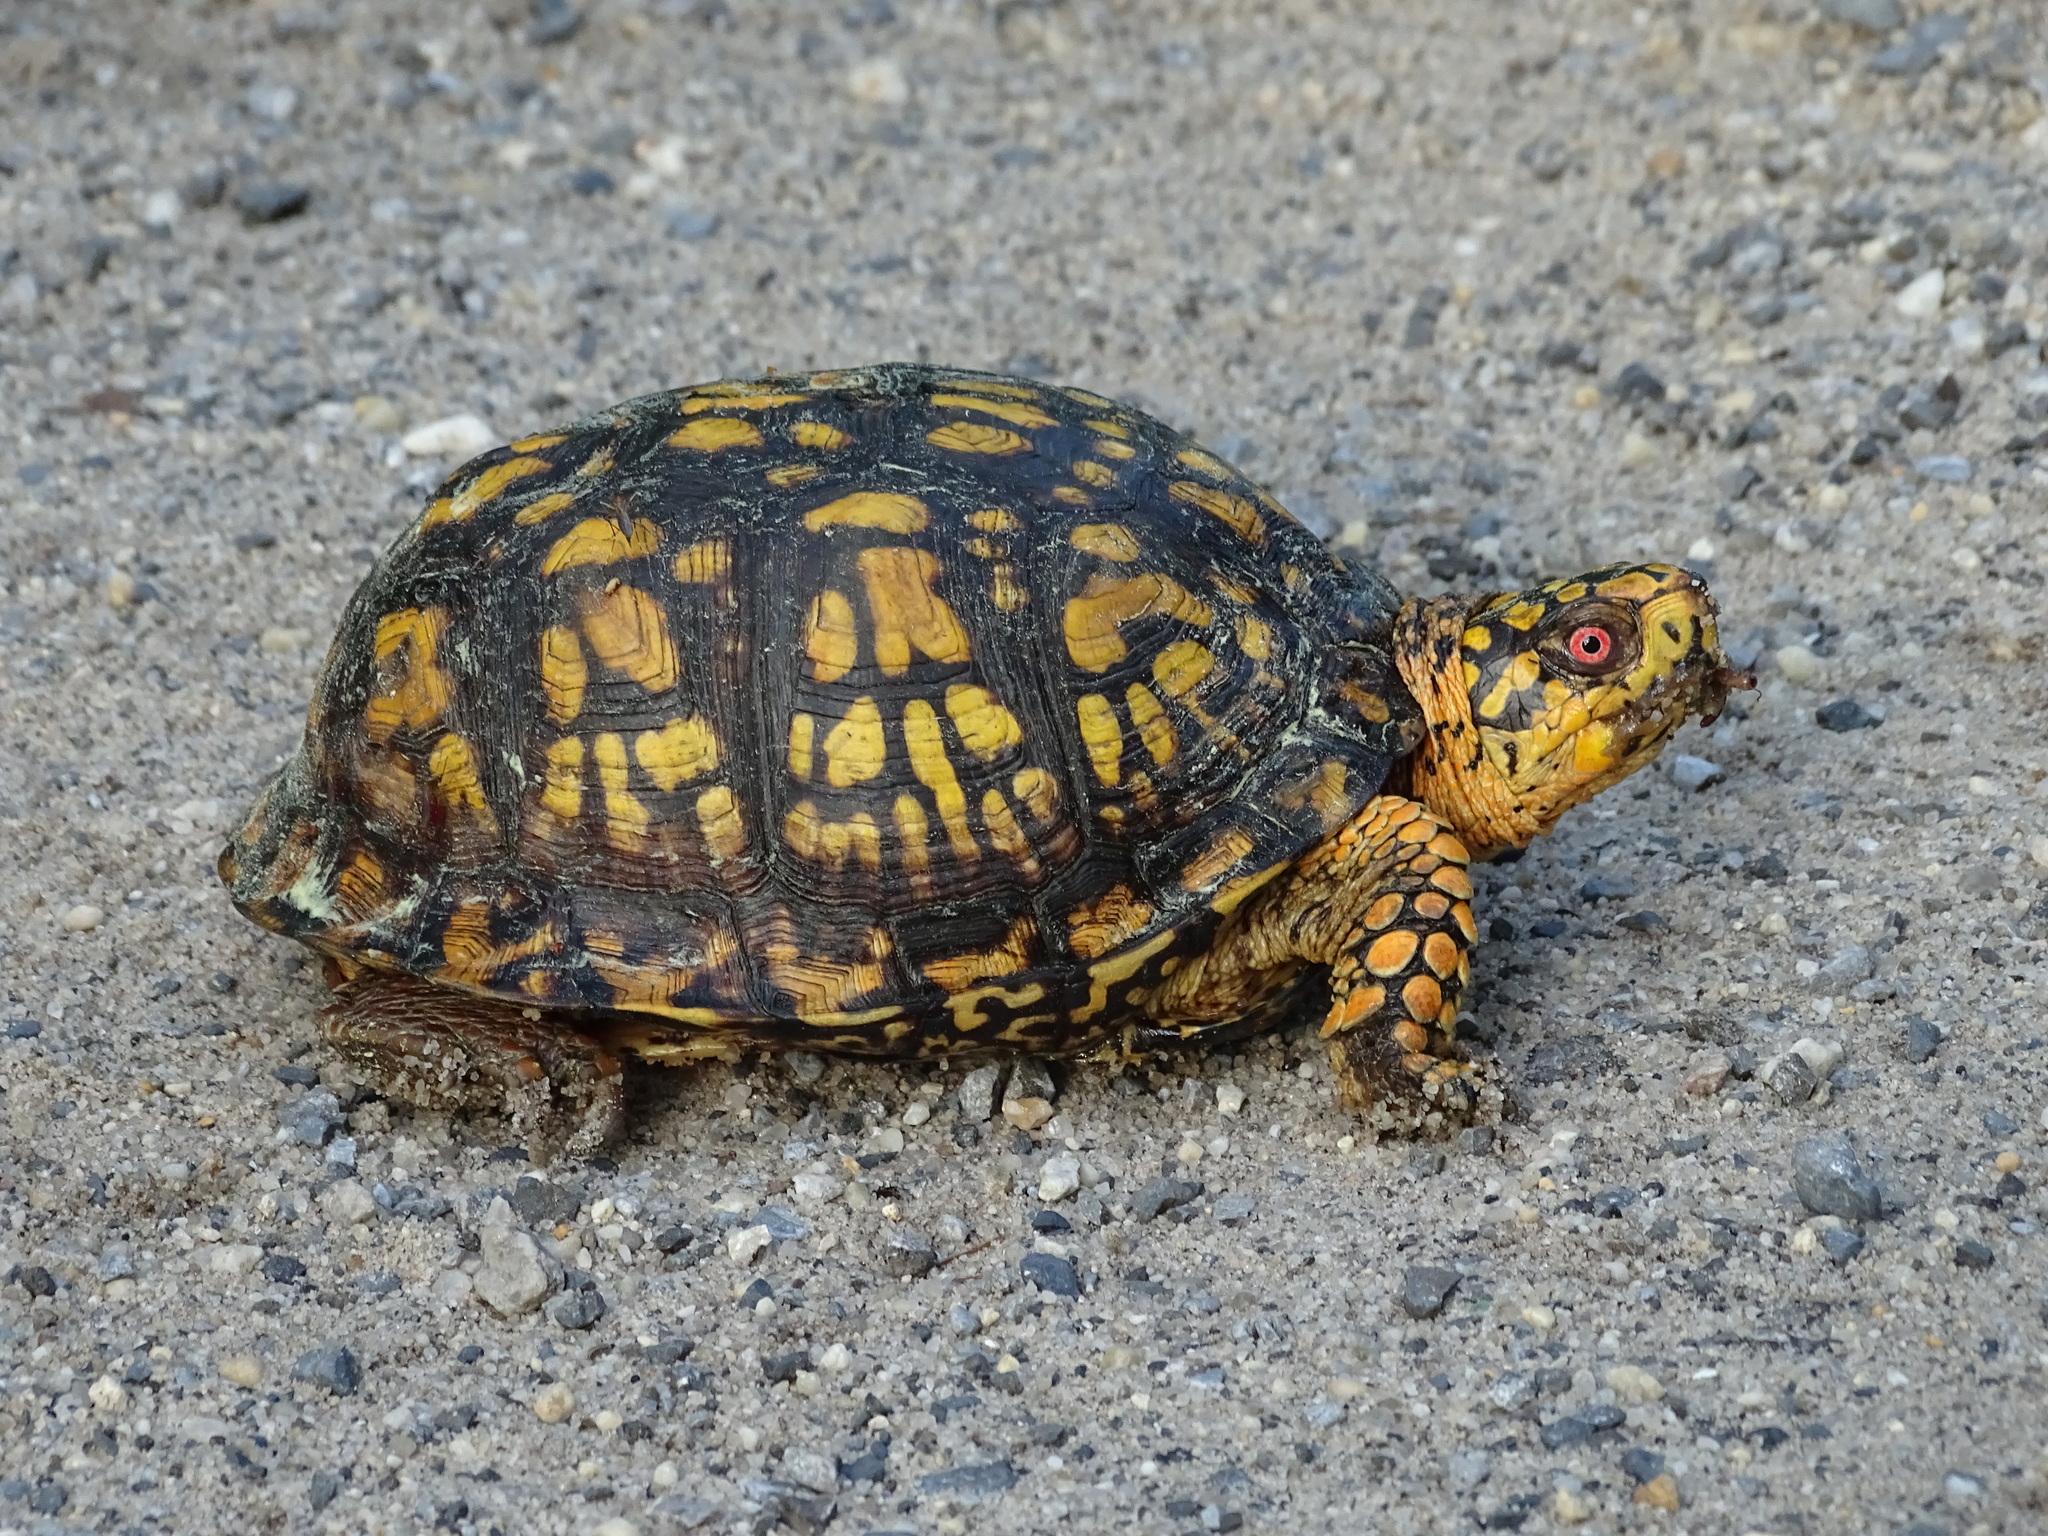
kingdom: Animalia
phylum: Chordata
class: Testudines
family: Emydidae
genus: Terrapene
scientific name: Terrapene carolina
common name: Common box turtle
